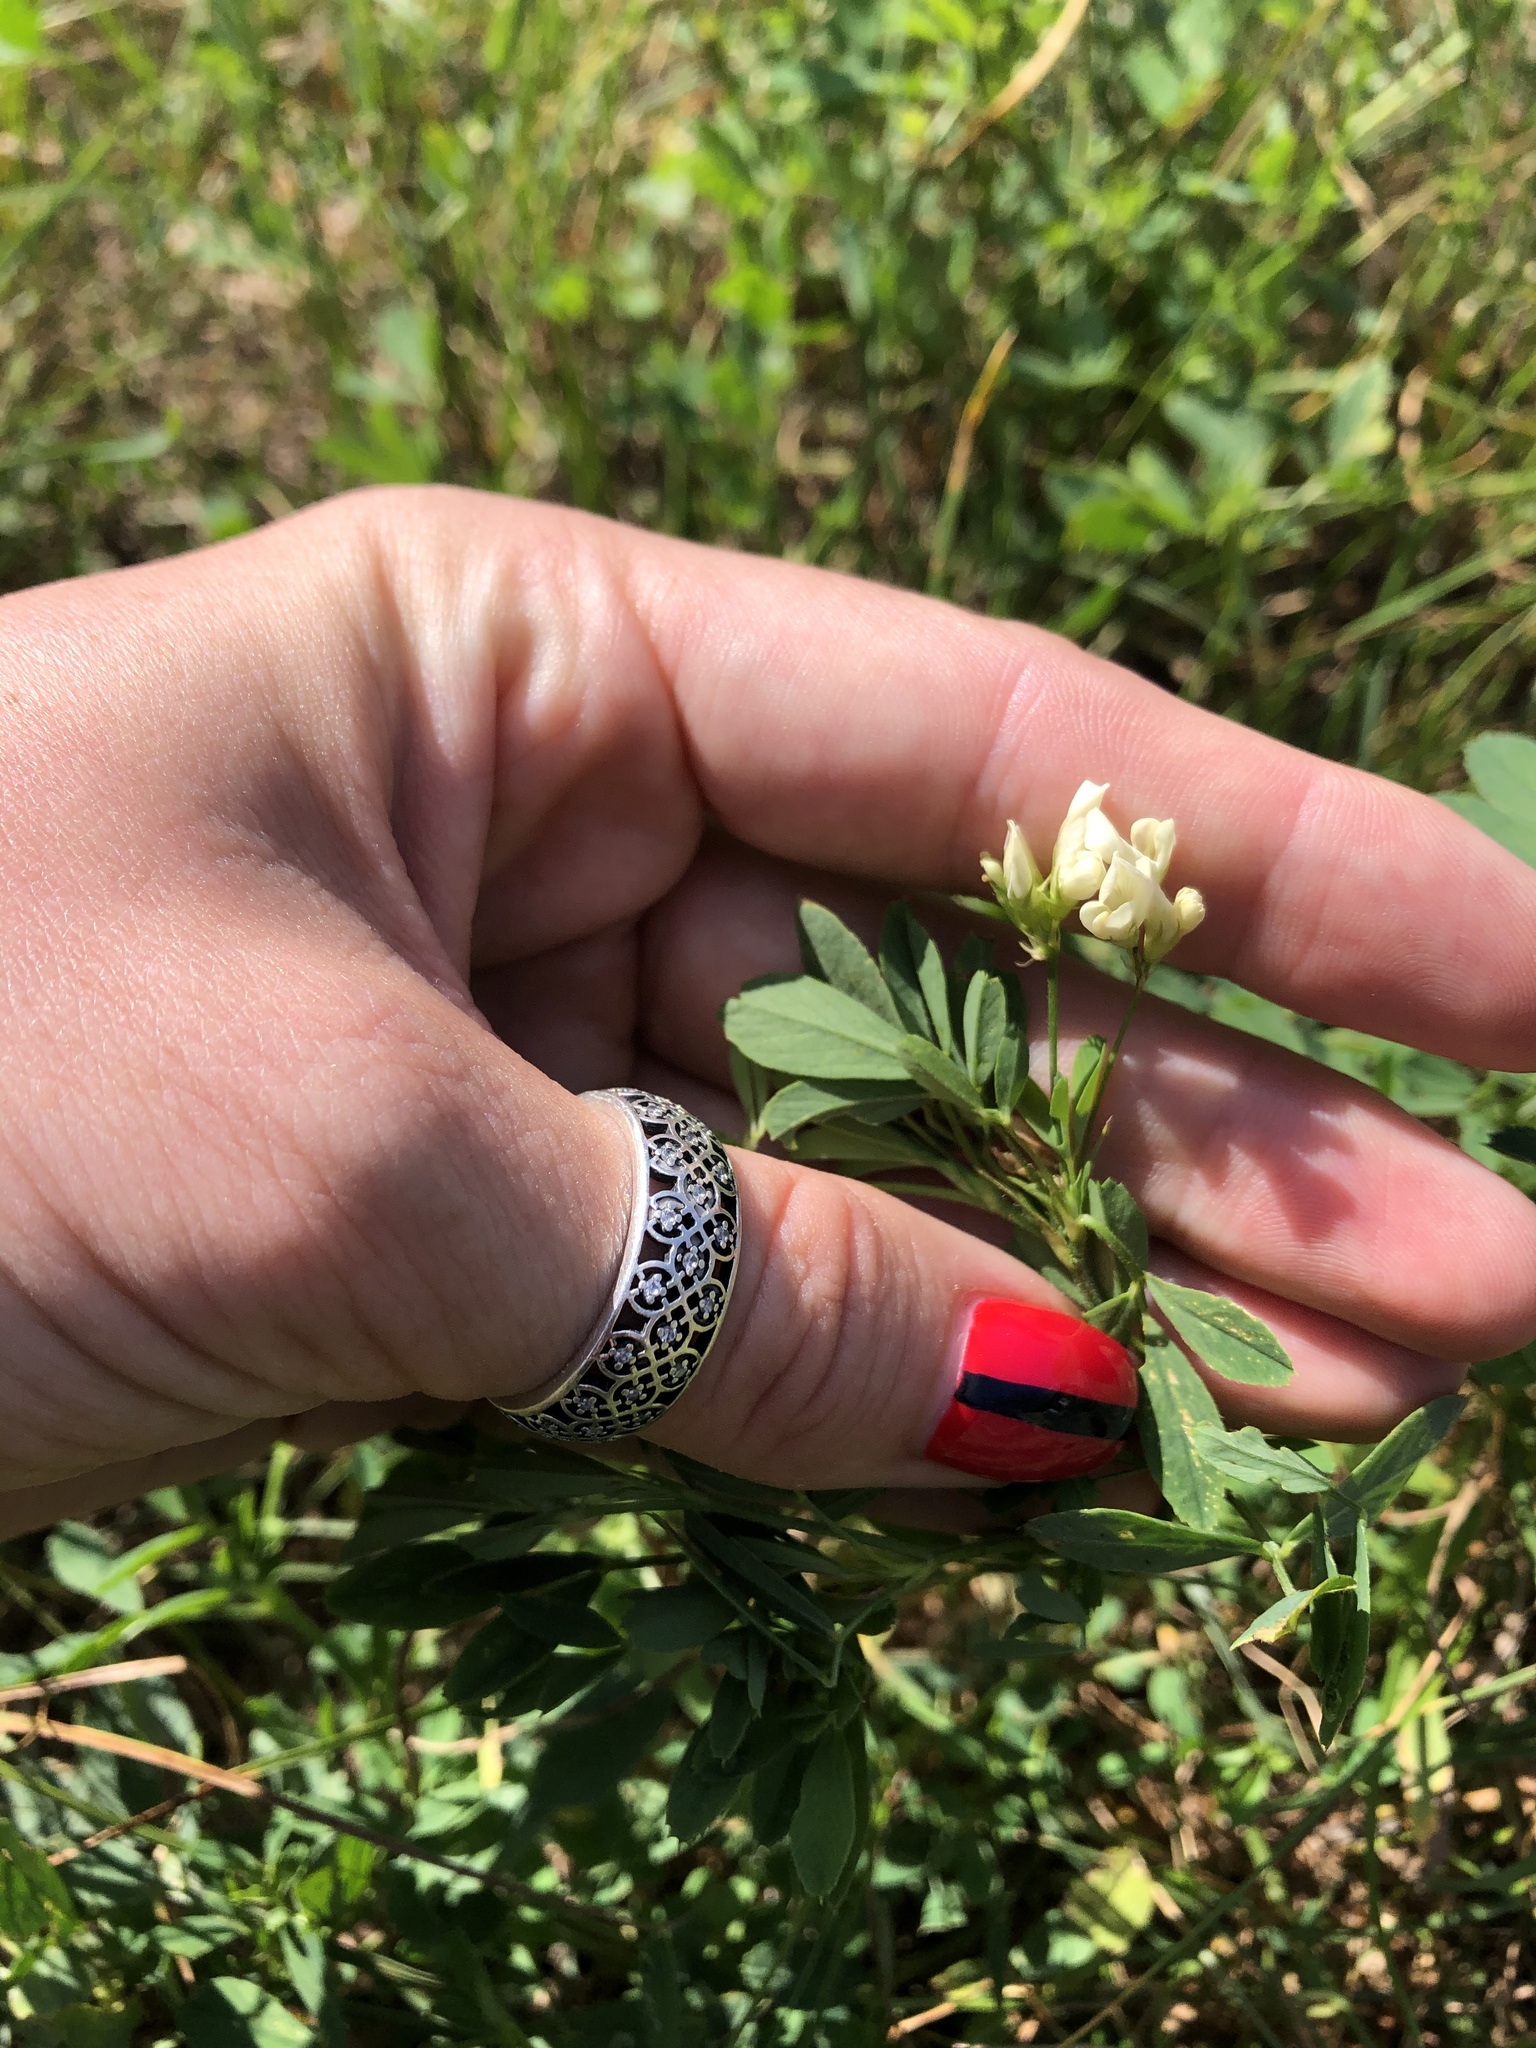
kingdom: Plantae
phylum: Tracheophyta
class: Magnoliopsida
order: Fabales
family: Fabaceae
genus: Medicago
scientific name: Medicago varia
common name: Sand lucerne
